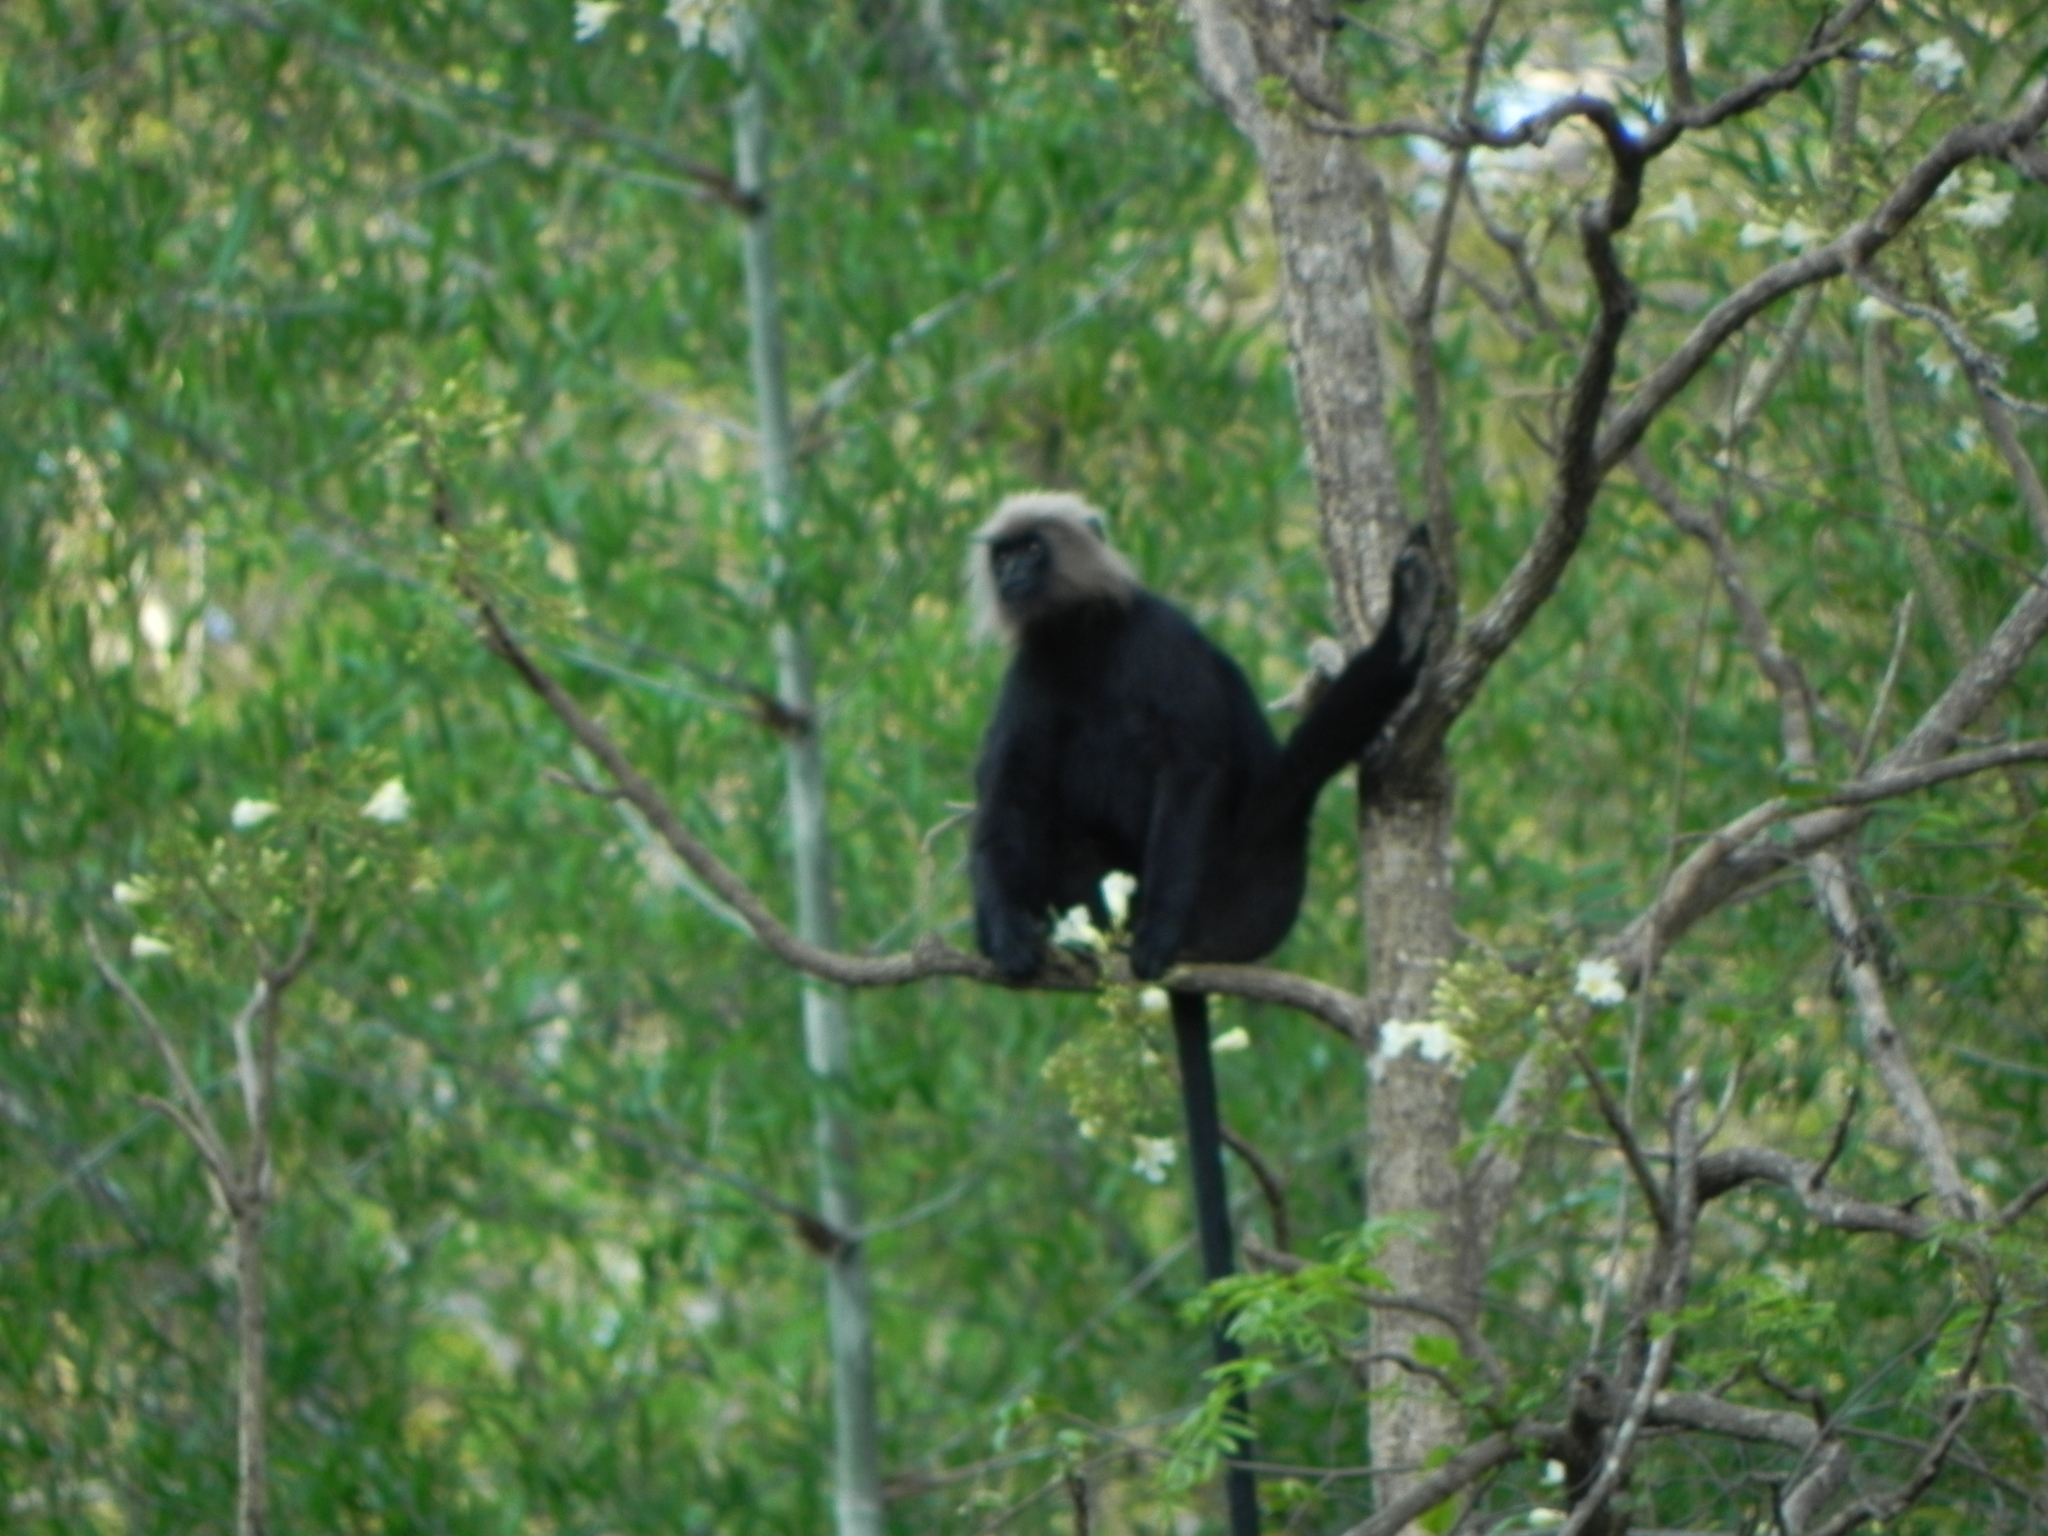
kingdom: Animalia
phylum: Chordata
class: Mammalia
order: Primates
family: Cercopithecidae
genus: Semnopithecus
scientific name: Semnopithecus johnii
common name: Nilgiri langur
